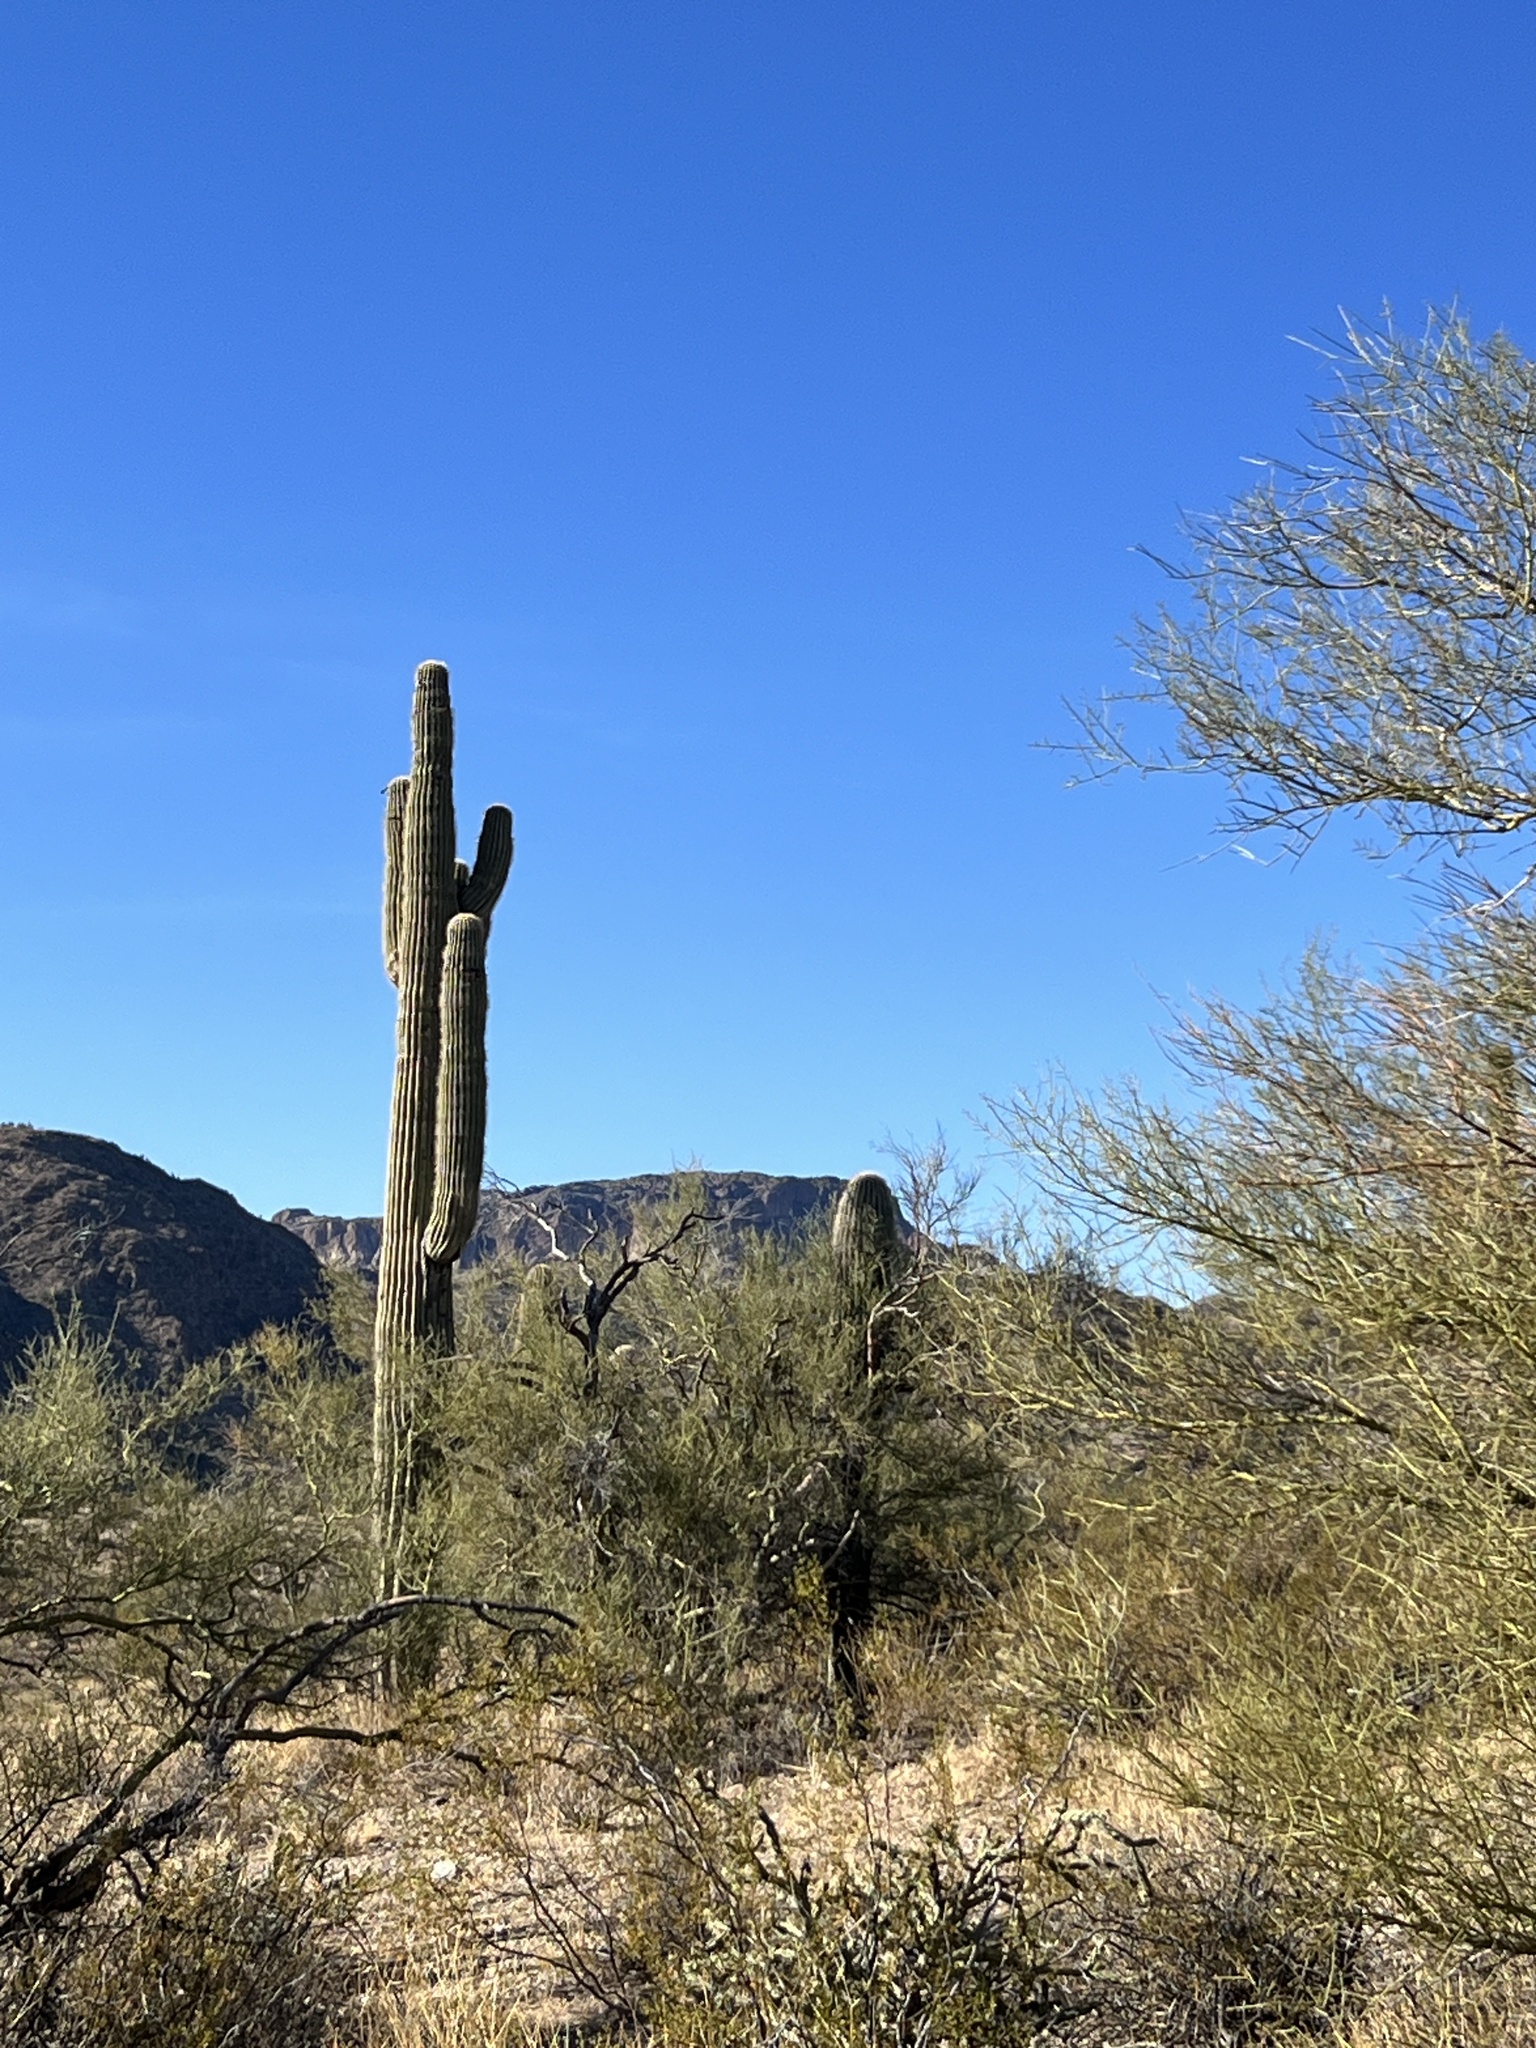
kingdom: Plantae
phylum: Tracheophyta
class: Magnoliopsida
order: Caryophyllales
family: Cactaceae
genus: Carnegiea
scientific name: Carnegiea gigantea
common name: Saguaro
